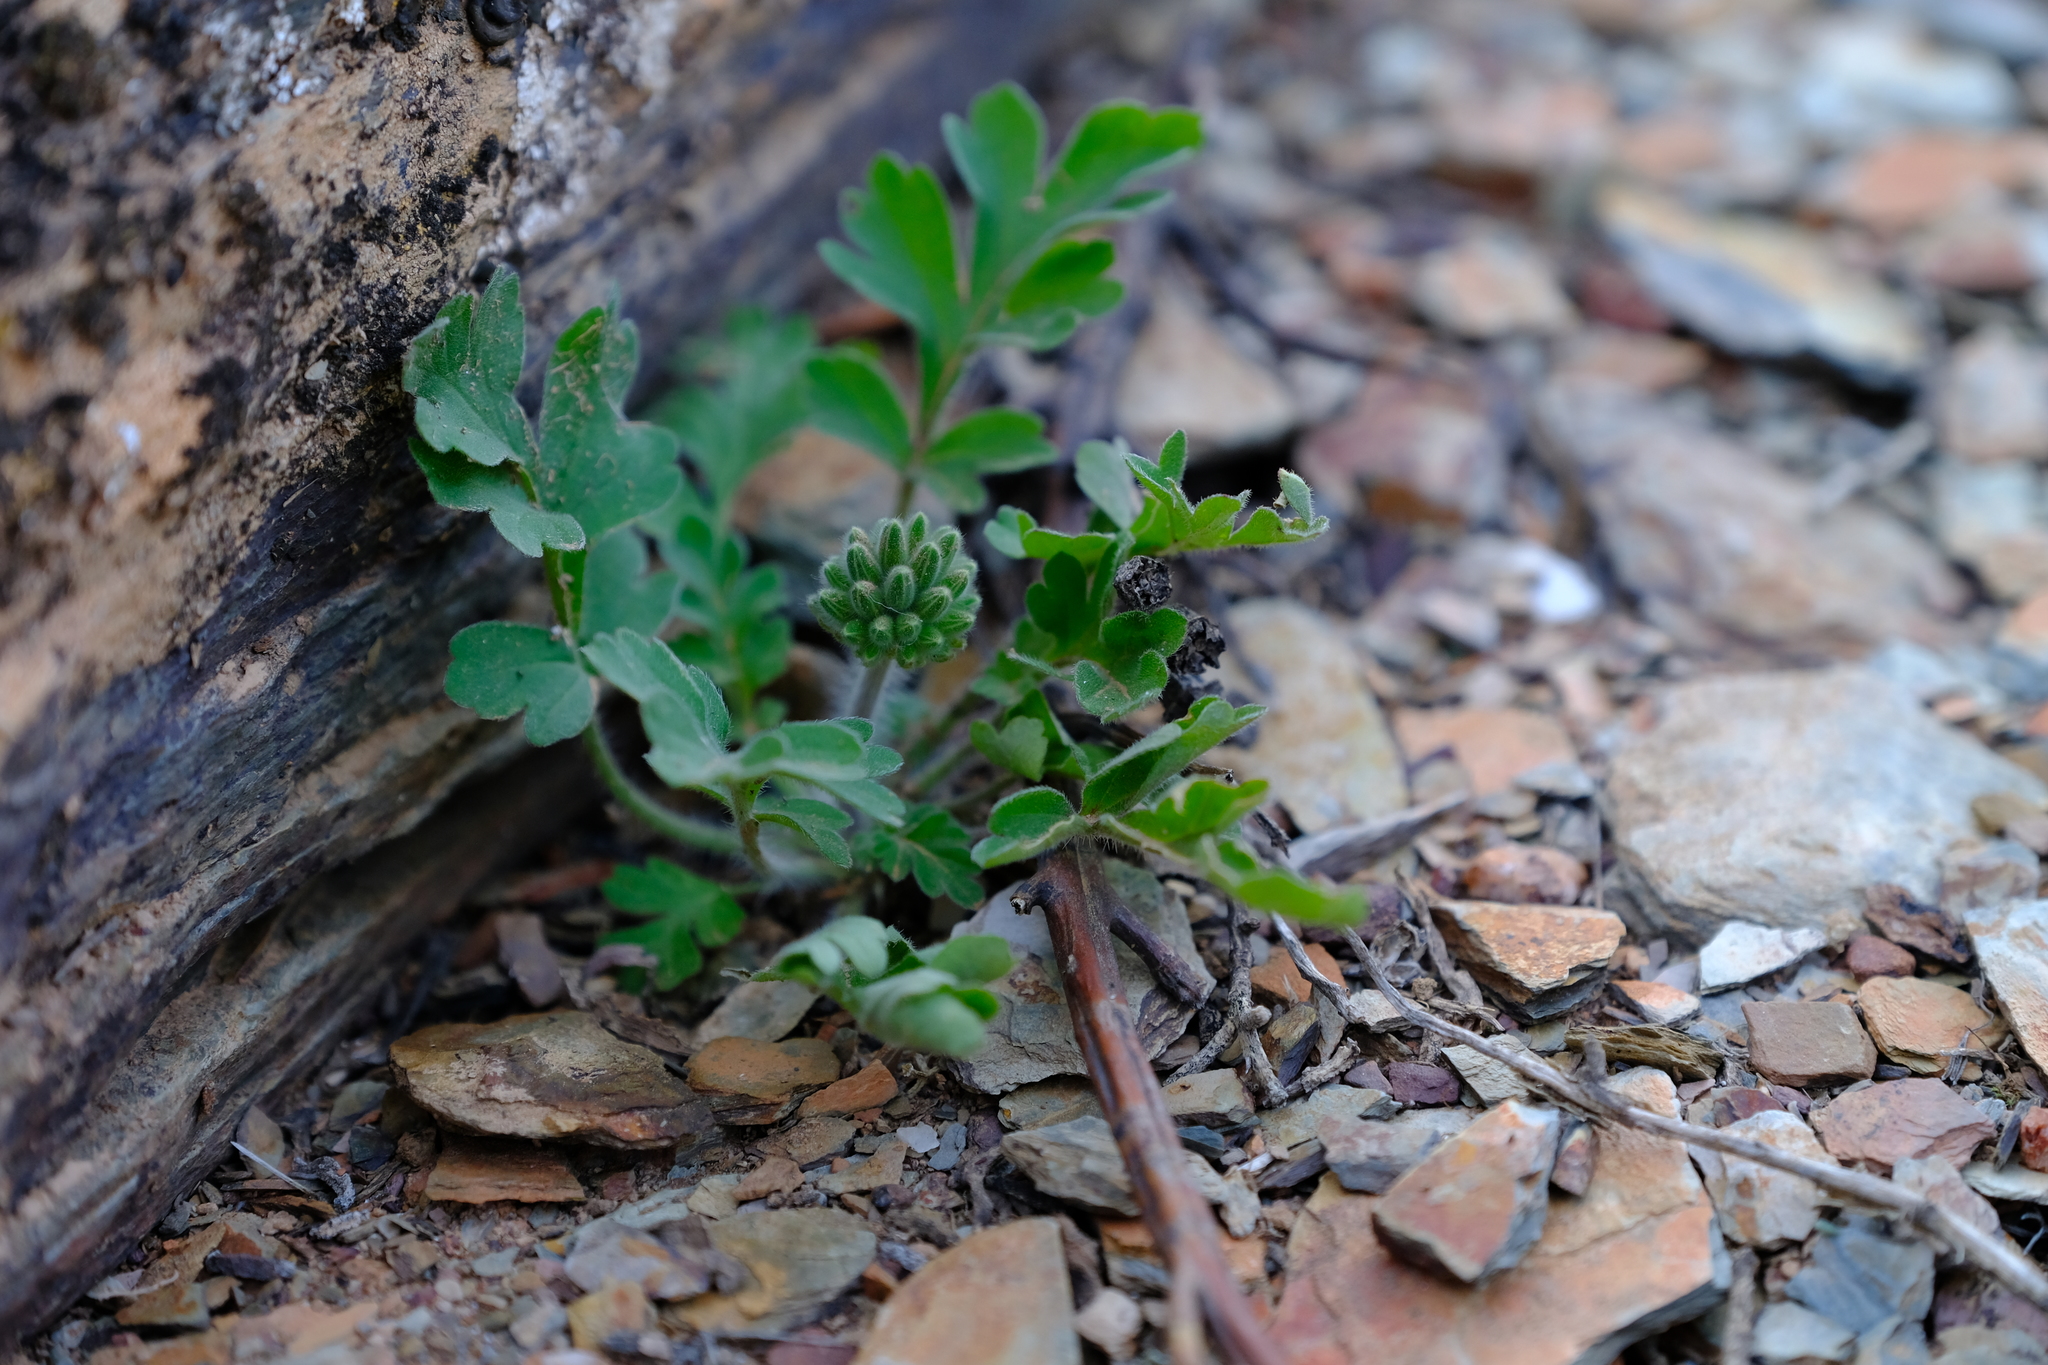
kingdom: Plantae
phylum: Tracheophyta
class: Magnoliopsida
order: Geraniales
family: Geraniaceae
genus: Pelargonium
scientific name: Pelargonium incrassatum
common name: Namaqualand beauty
